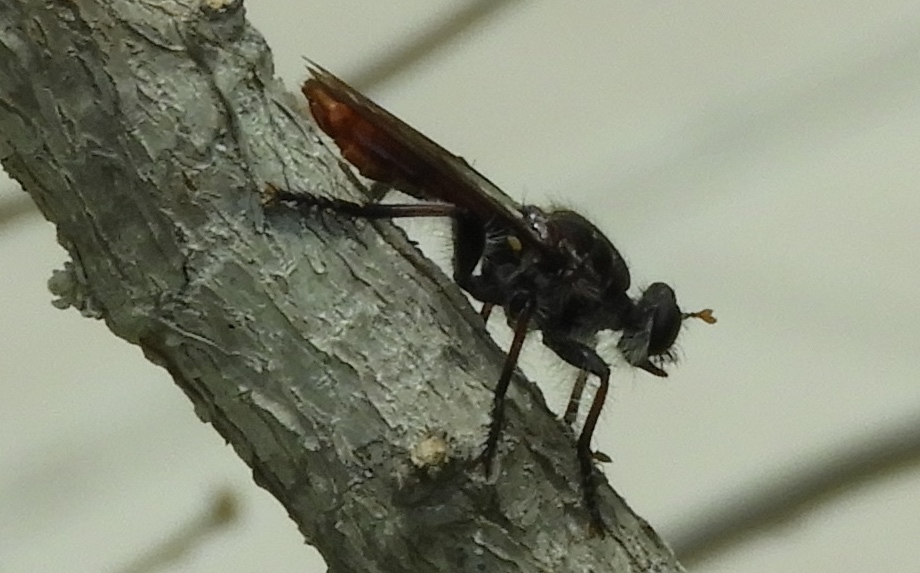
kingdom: Animalia
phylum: Arthropoda
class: Insecta
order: Diptera
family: Asilidae
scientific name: Asilidae
